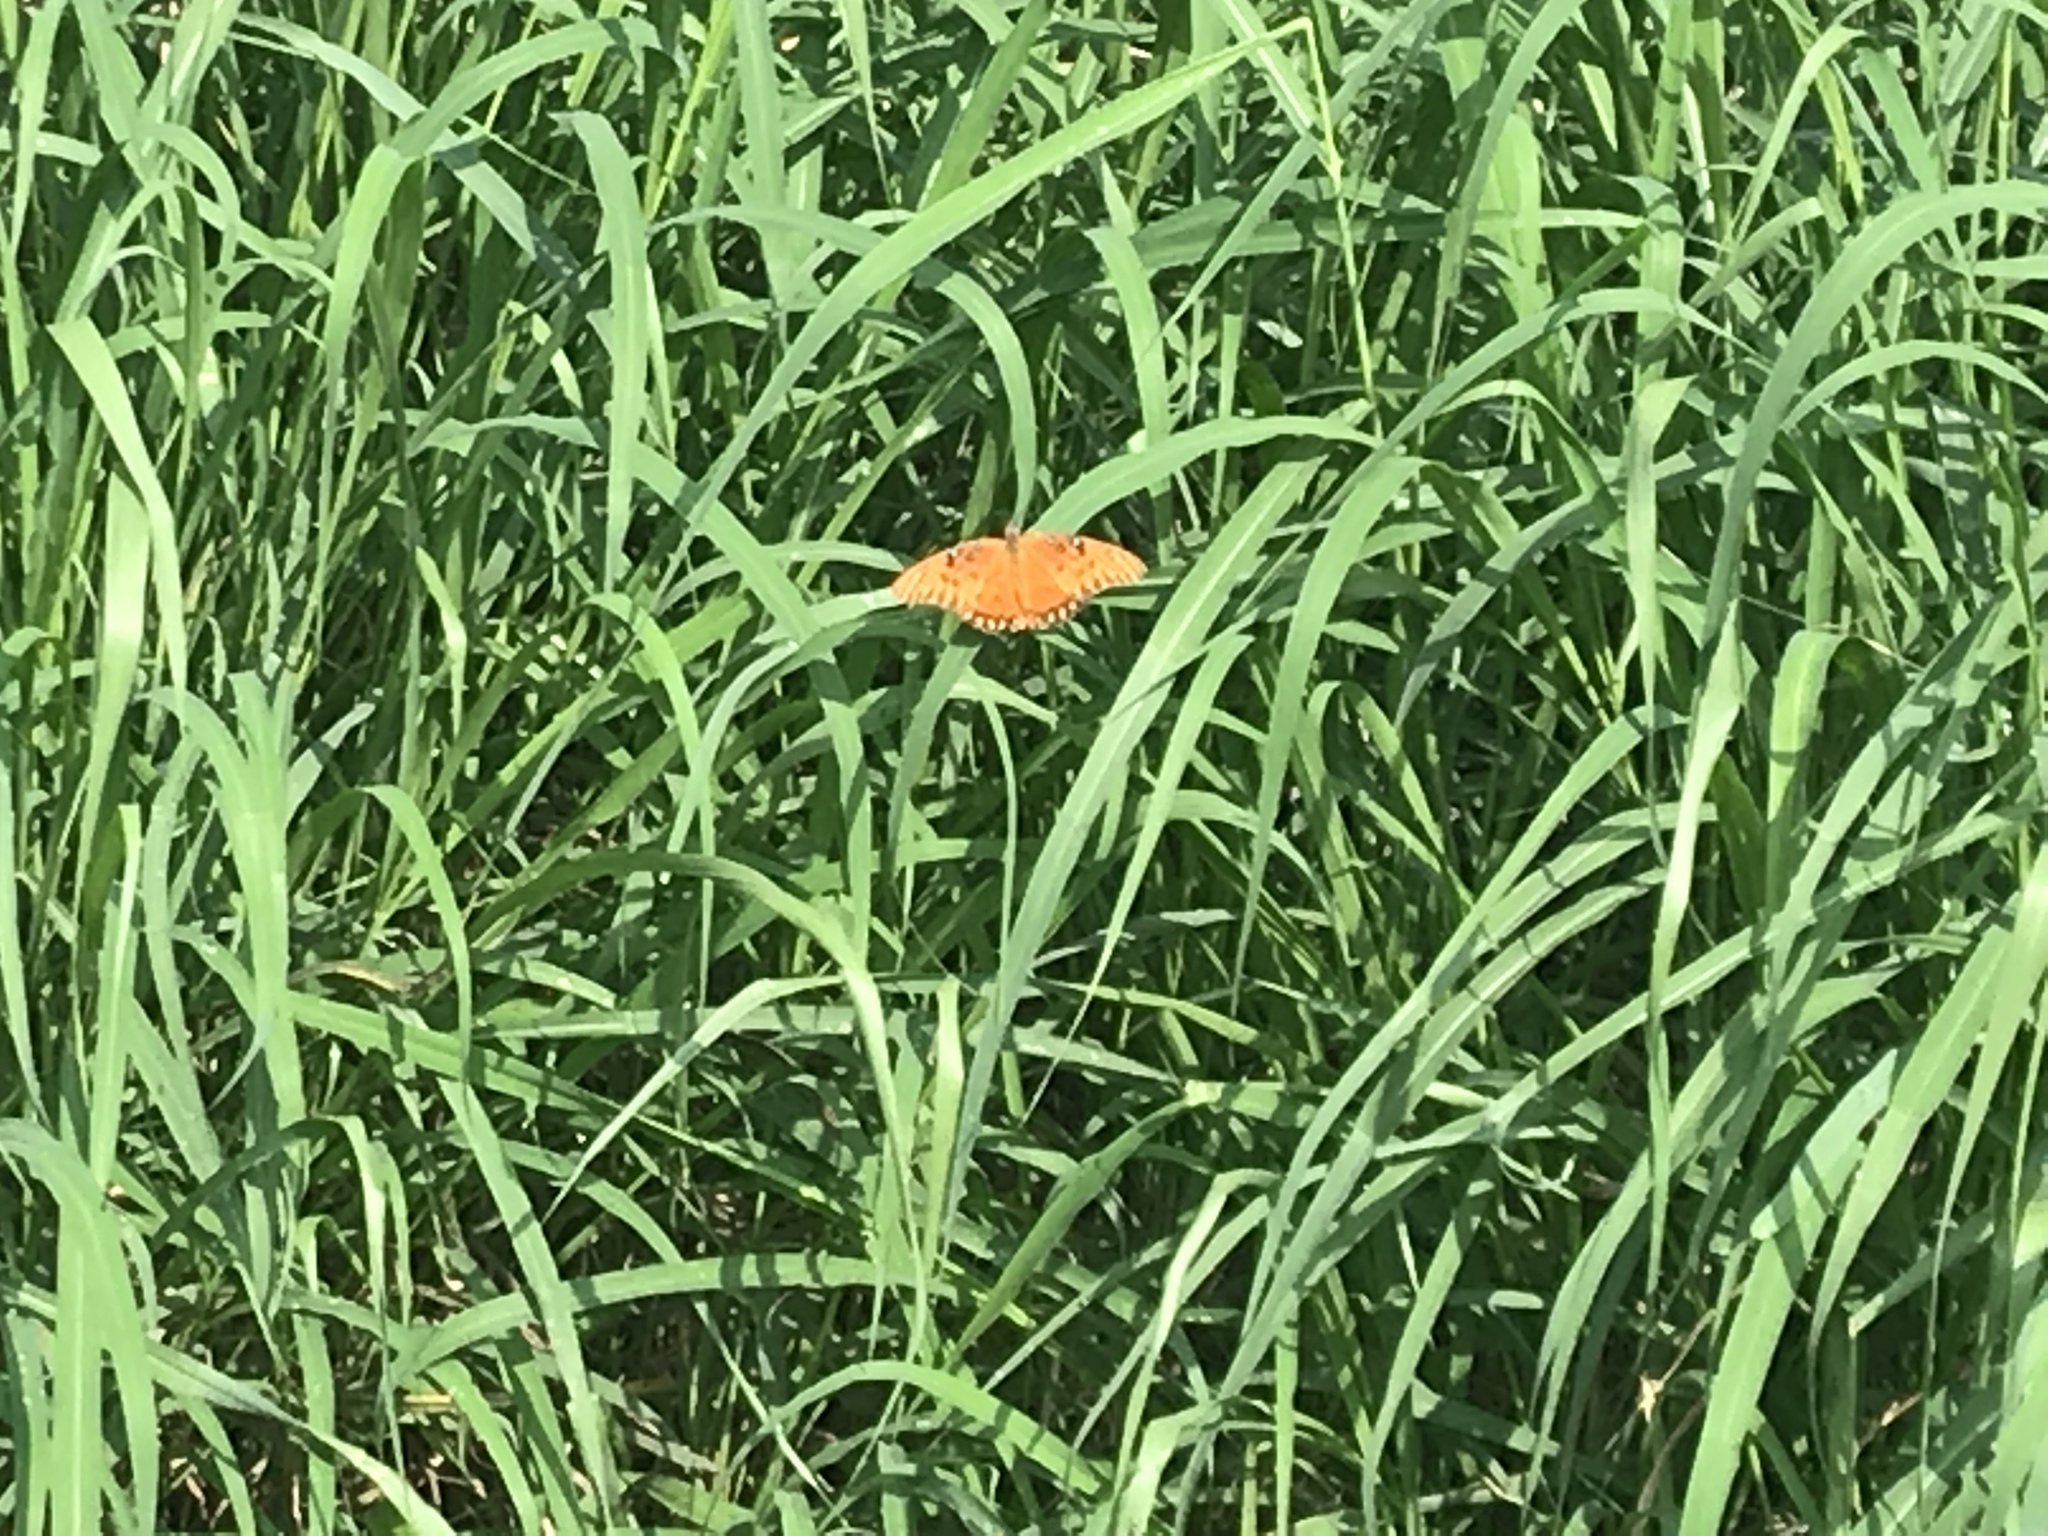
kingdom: Animalia
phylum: Arthropoda
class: Insecta
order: Lepidoptera
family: Nymphalidae
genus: Dione
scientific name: Dione vanillae
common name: Gulf fritillary
